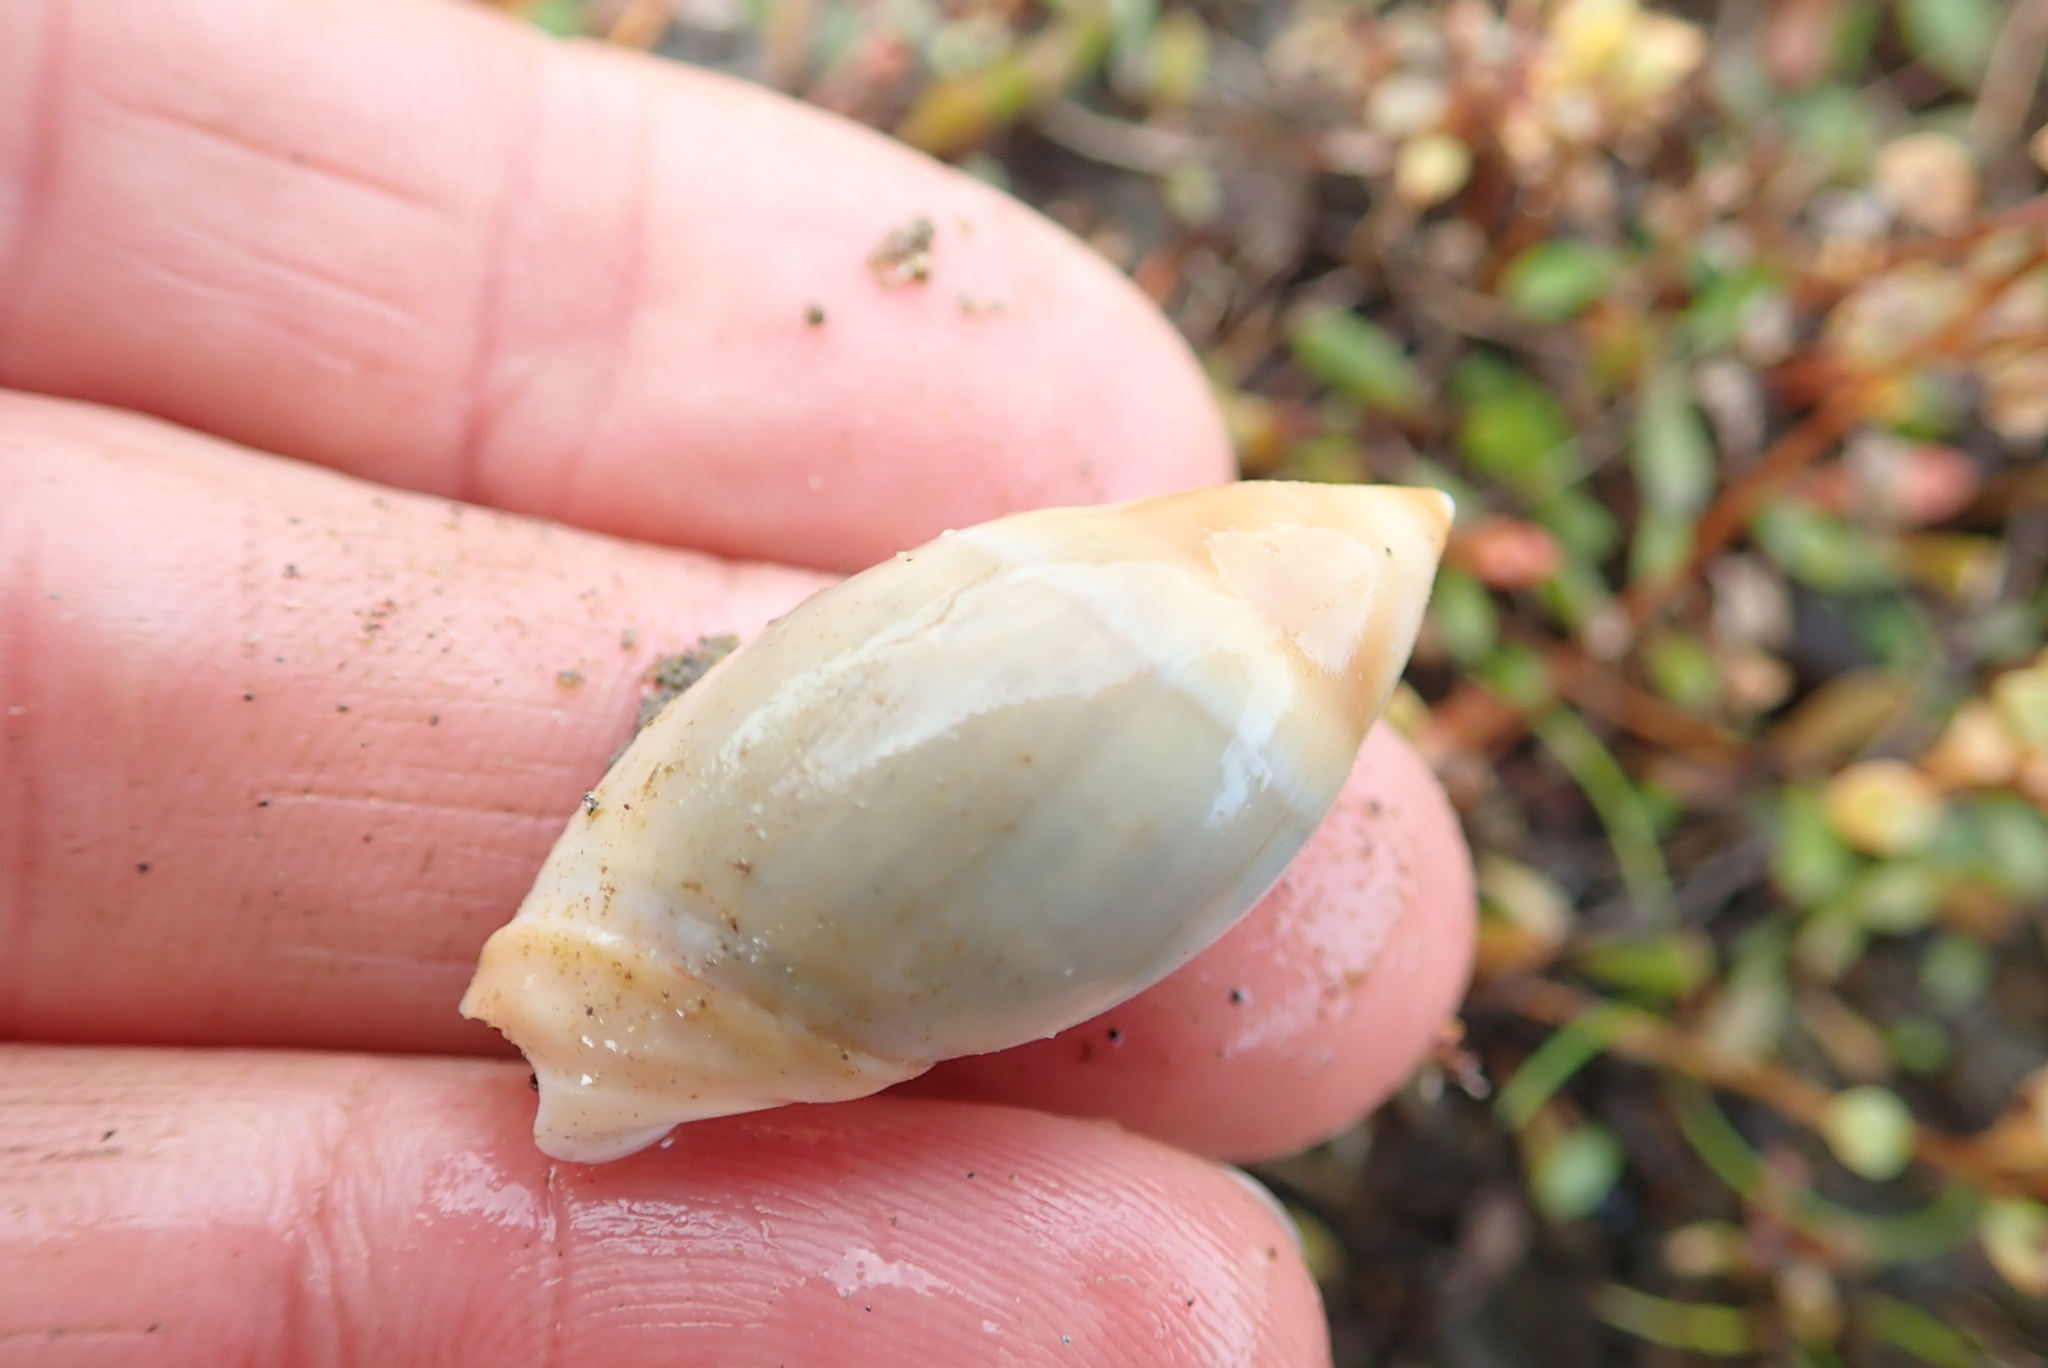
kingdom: Animalia
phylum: Mollusca
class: Gastropoda
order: Neogastropoda
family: Ancillariidae
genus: Amalda
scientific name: Amalda mucronata
